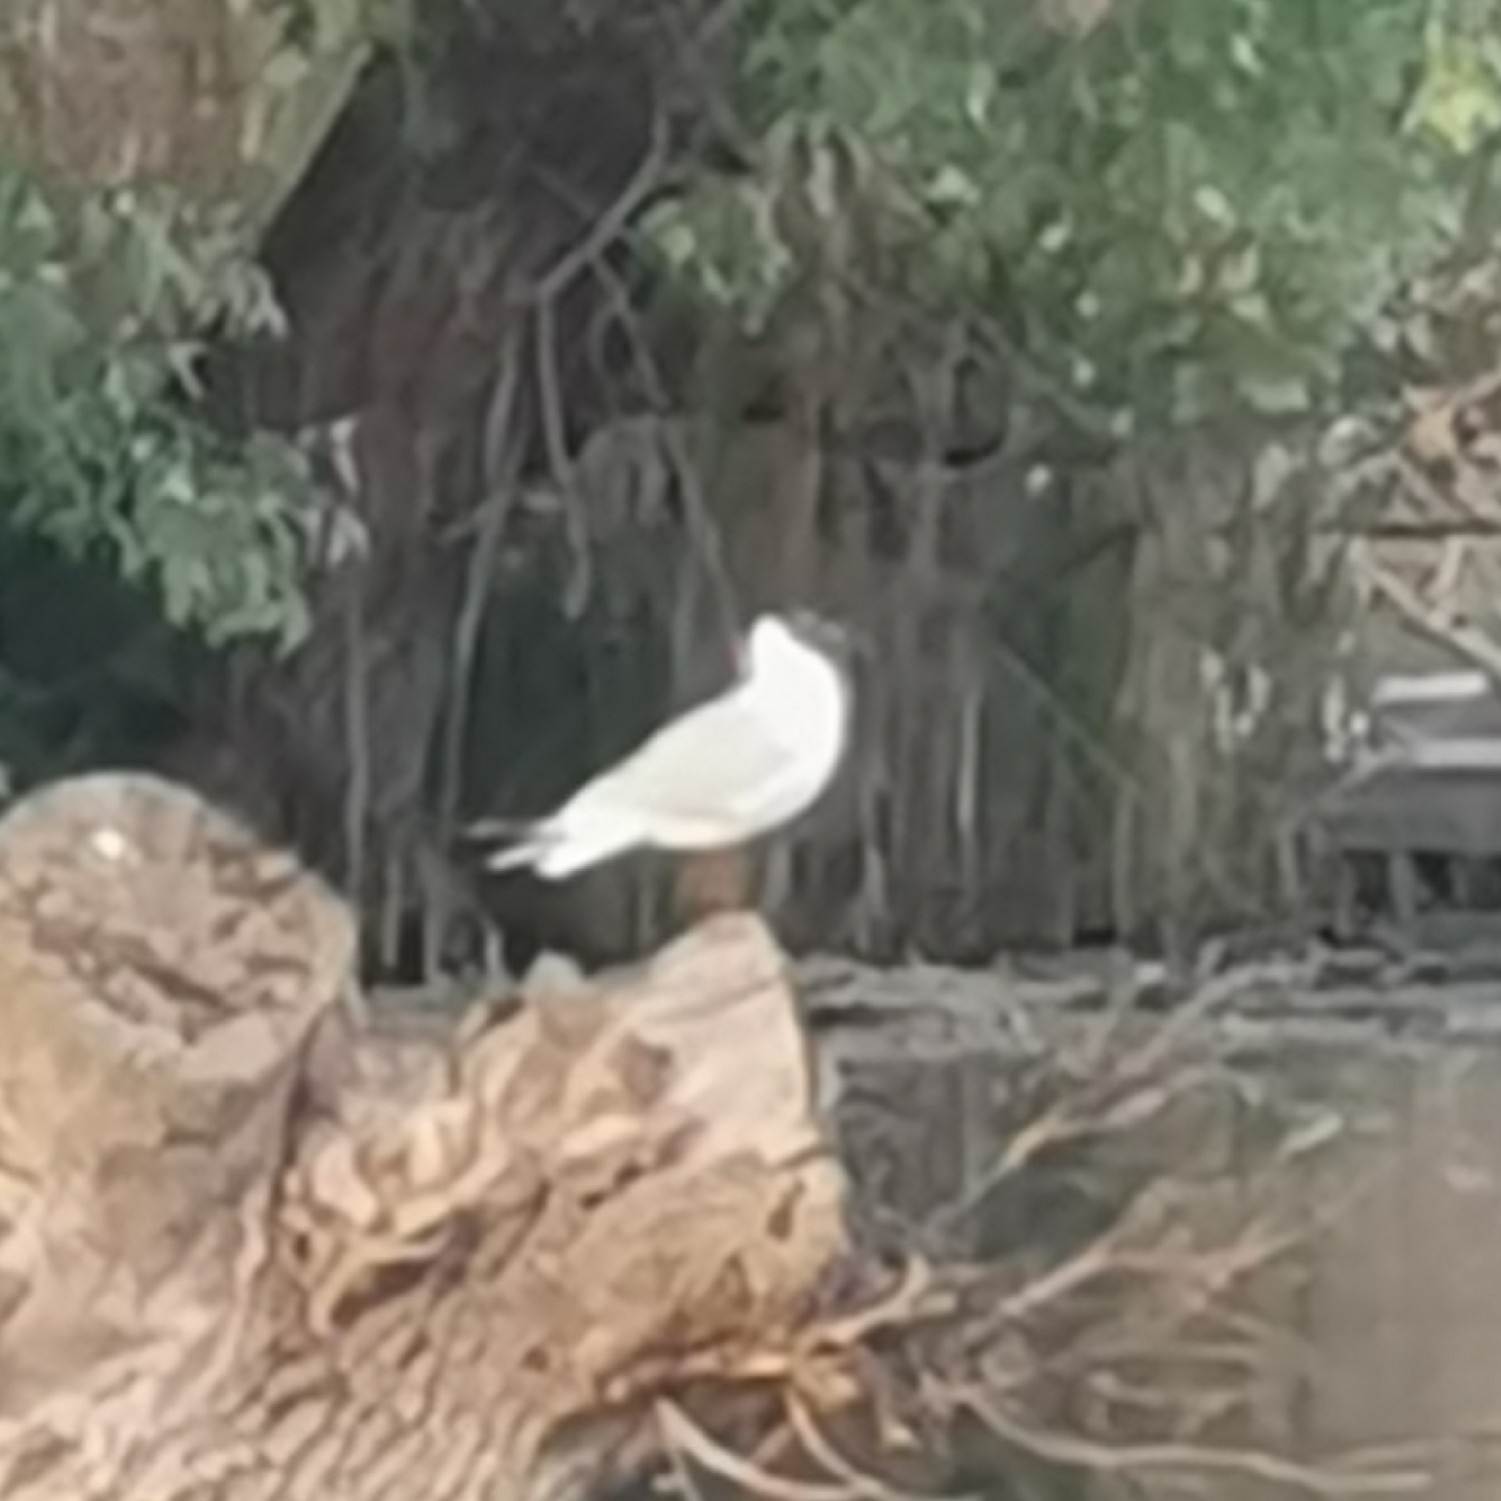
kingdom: Animalia
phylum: Chordata
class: Aves
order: Charadriiformes
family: Laridae
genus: Chroicocephalus
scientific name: Chroicocephalus ridibundus
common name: Black-headed gull
